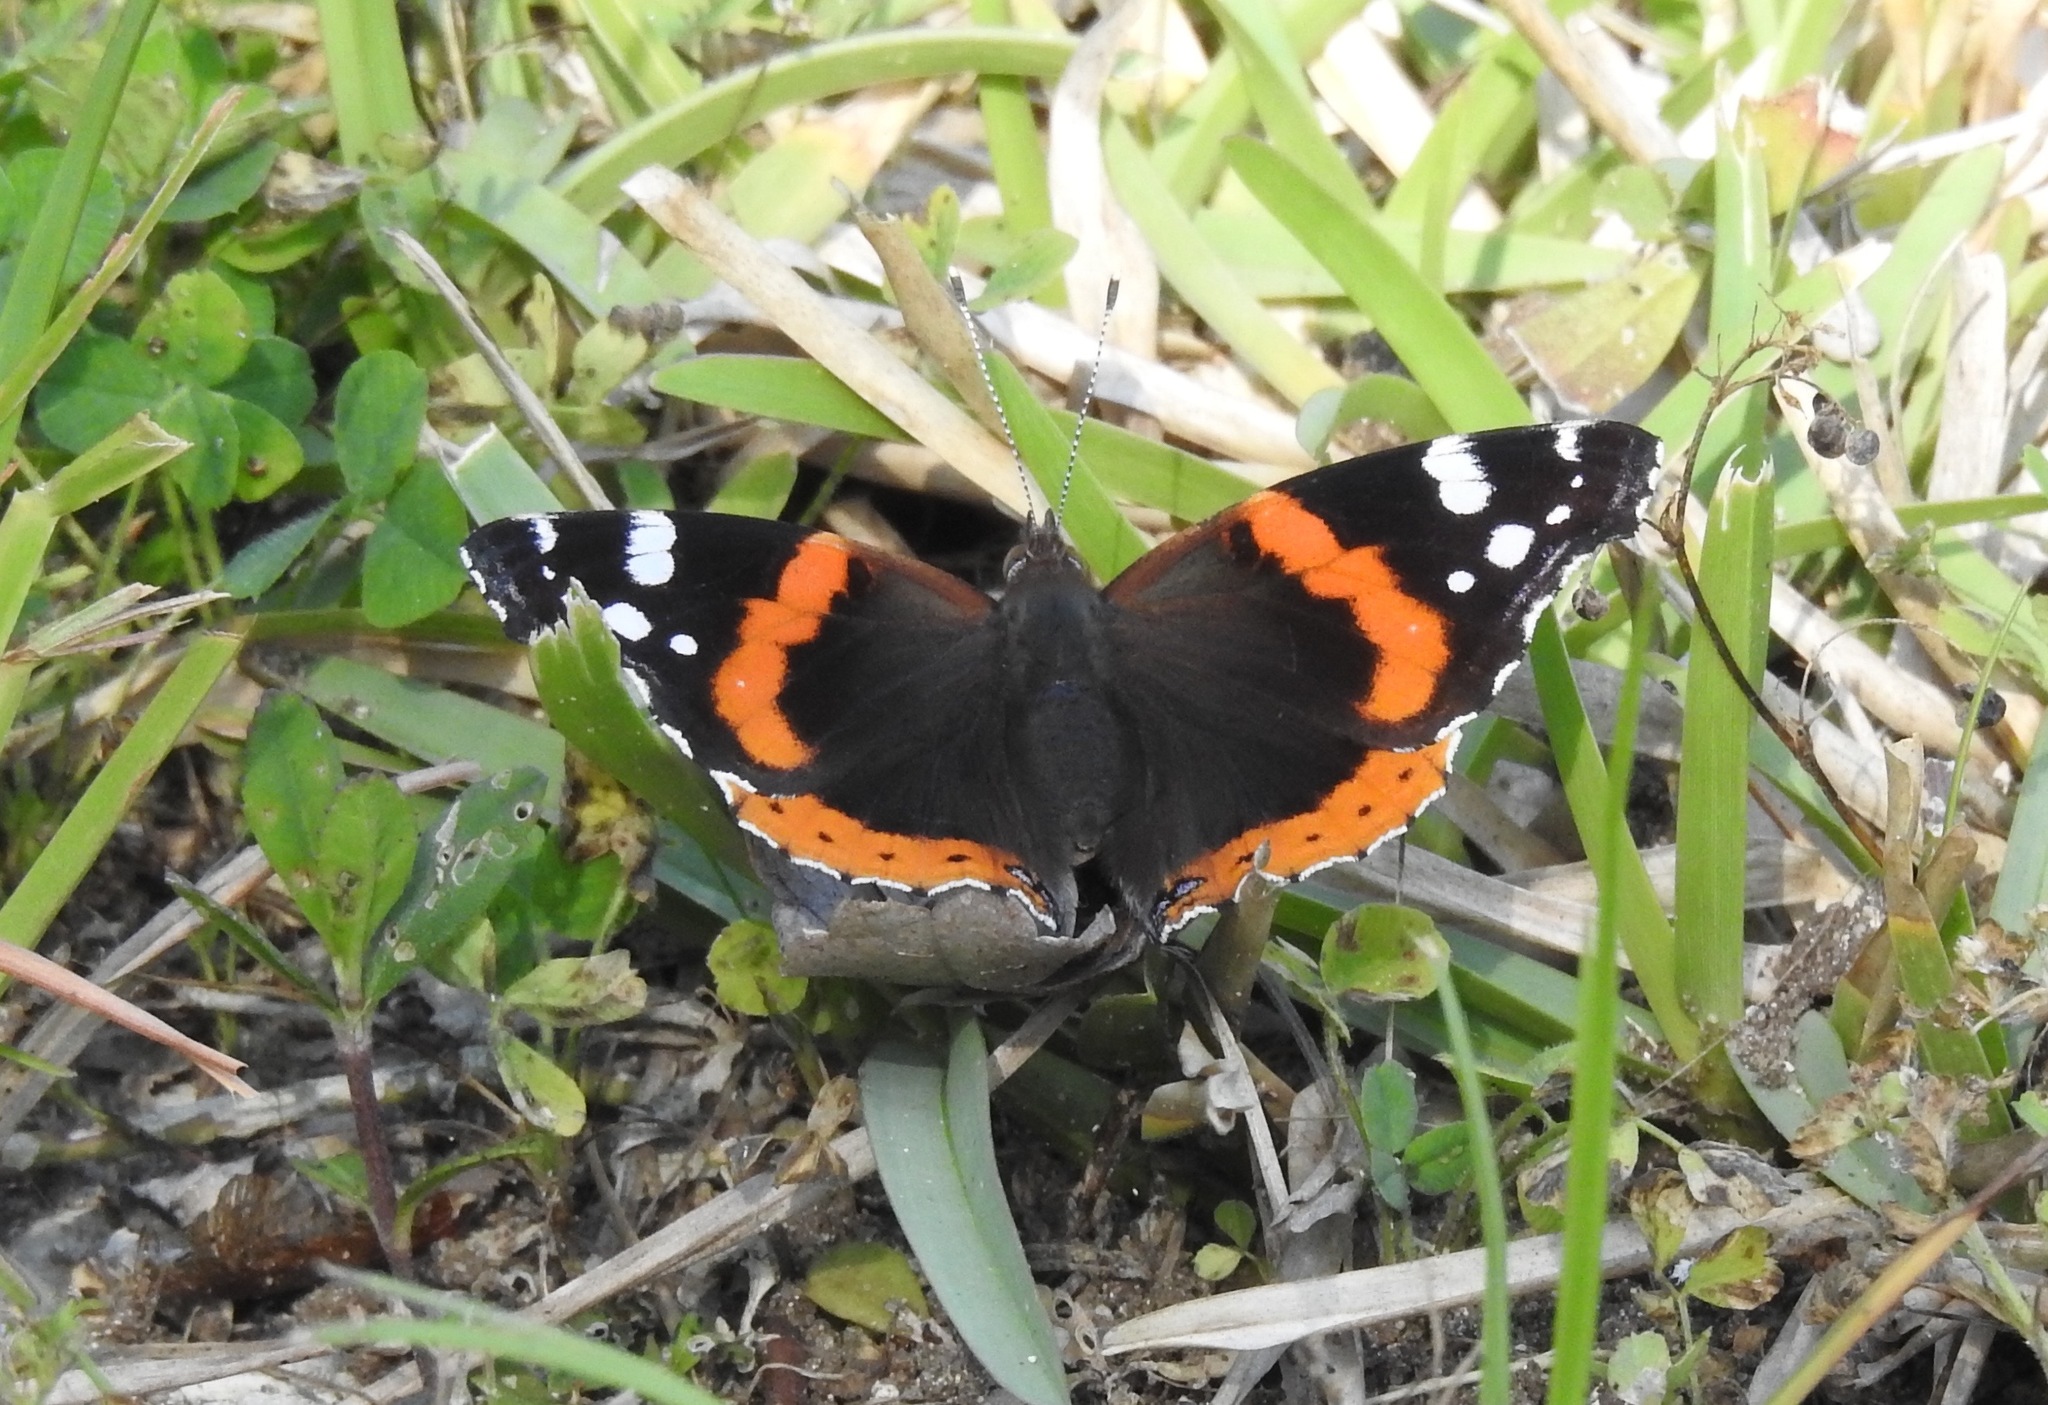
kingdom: Animalia
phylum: Arthropoda
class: Insecta
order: Lepidoptera
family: Nymphalidae
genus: Vanessa
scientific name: Vanessa atalanta
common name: Red admiral
